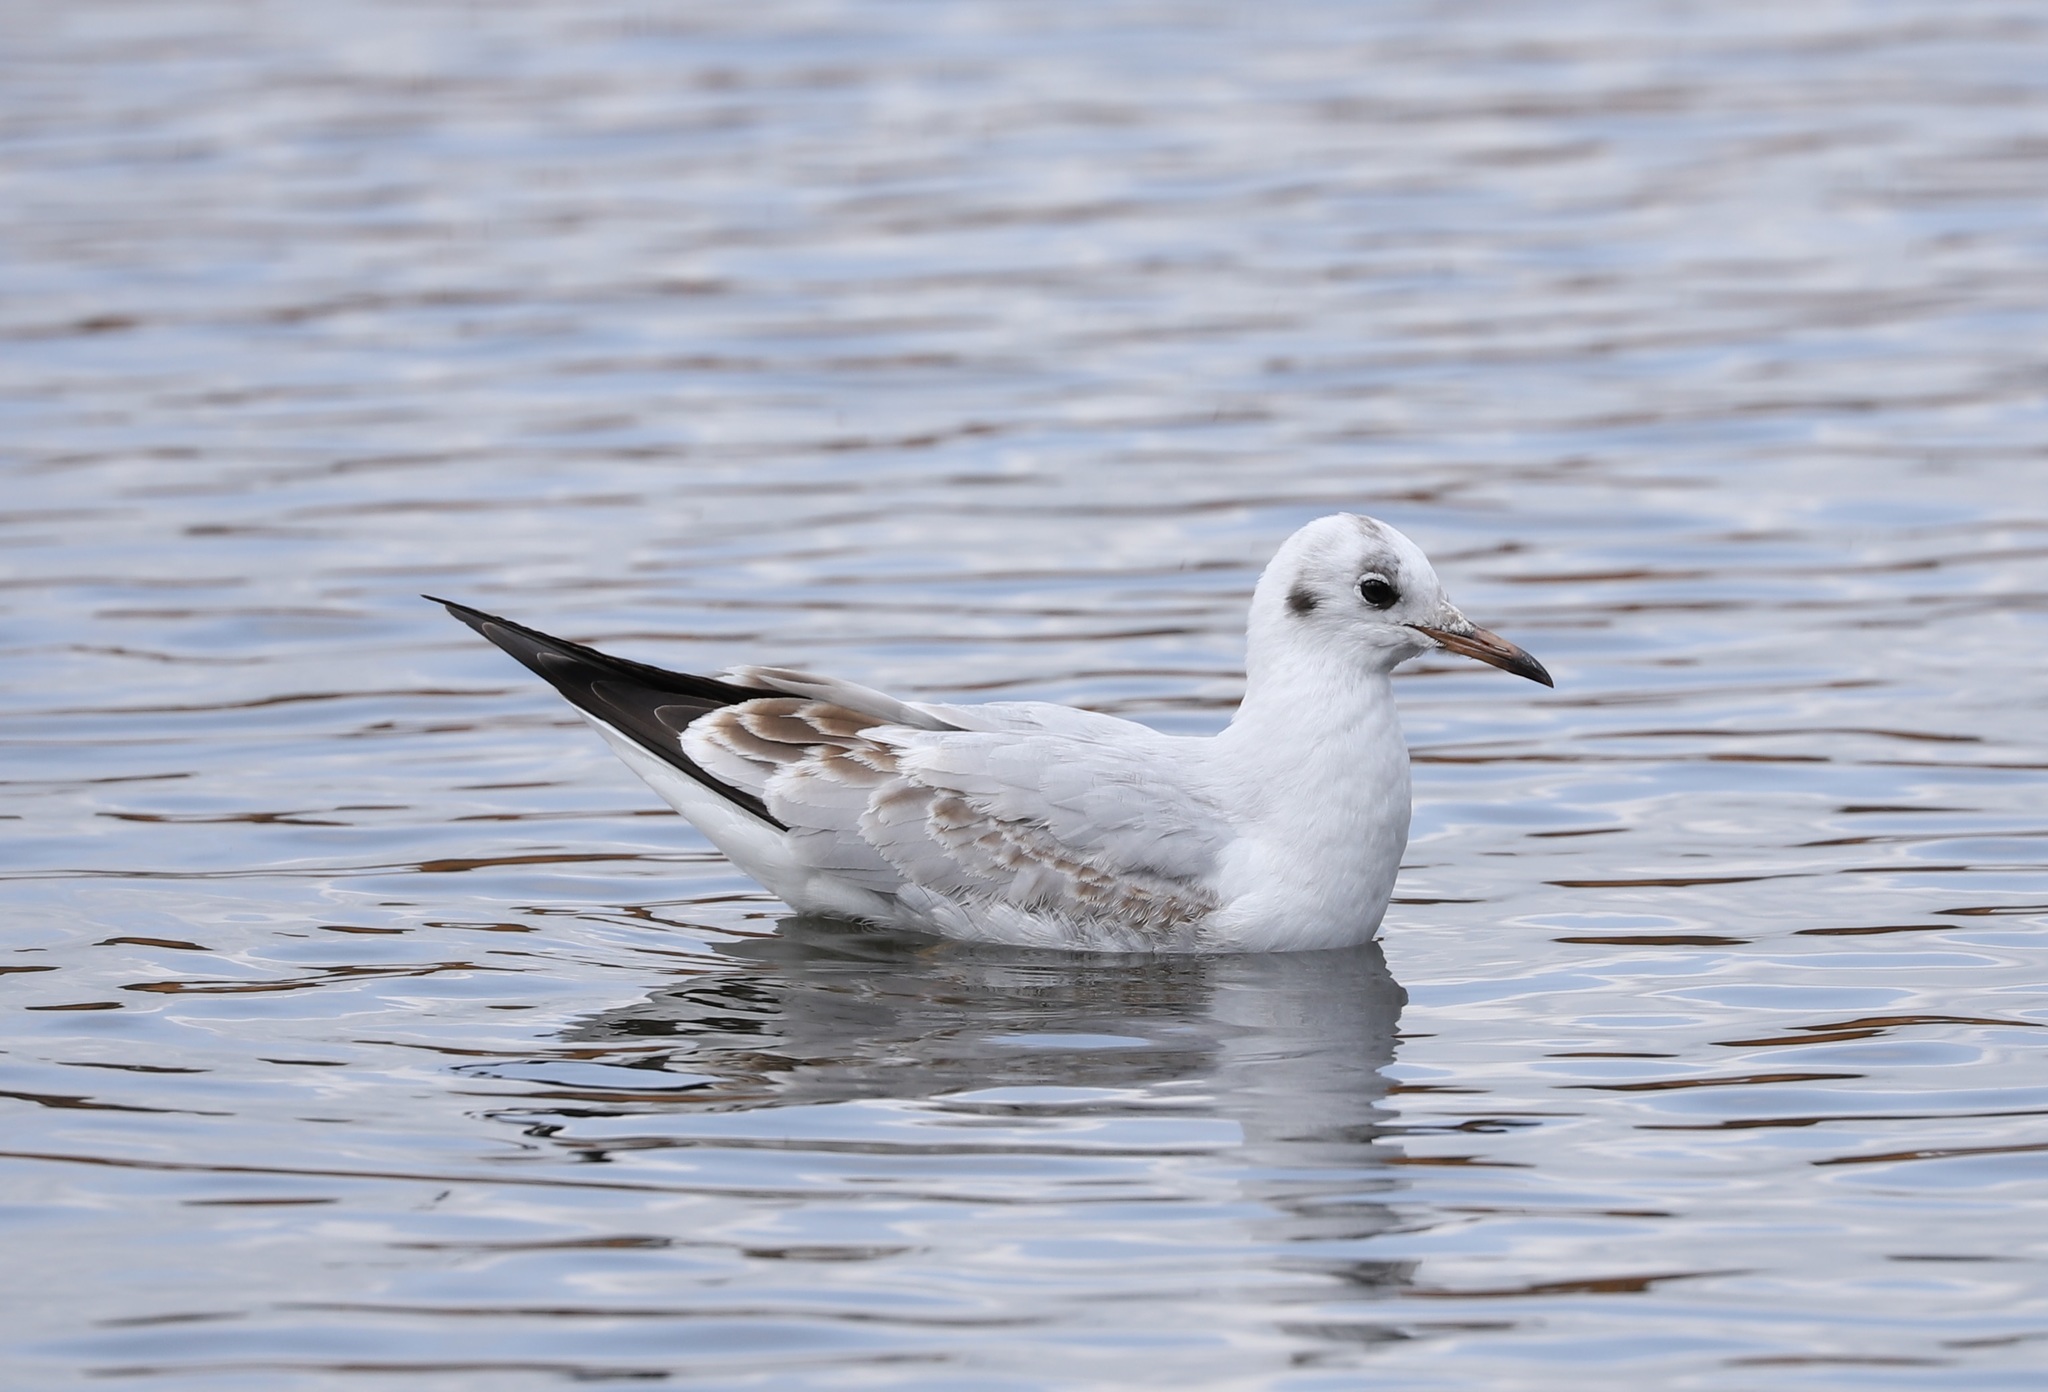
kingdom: Animalia
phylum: Chordata
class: Aves
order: Charadriiformes
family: Laridae
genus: Chroicocephalus
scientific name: Chroicocephalus ridibundus
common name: Black-headed gull
